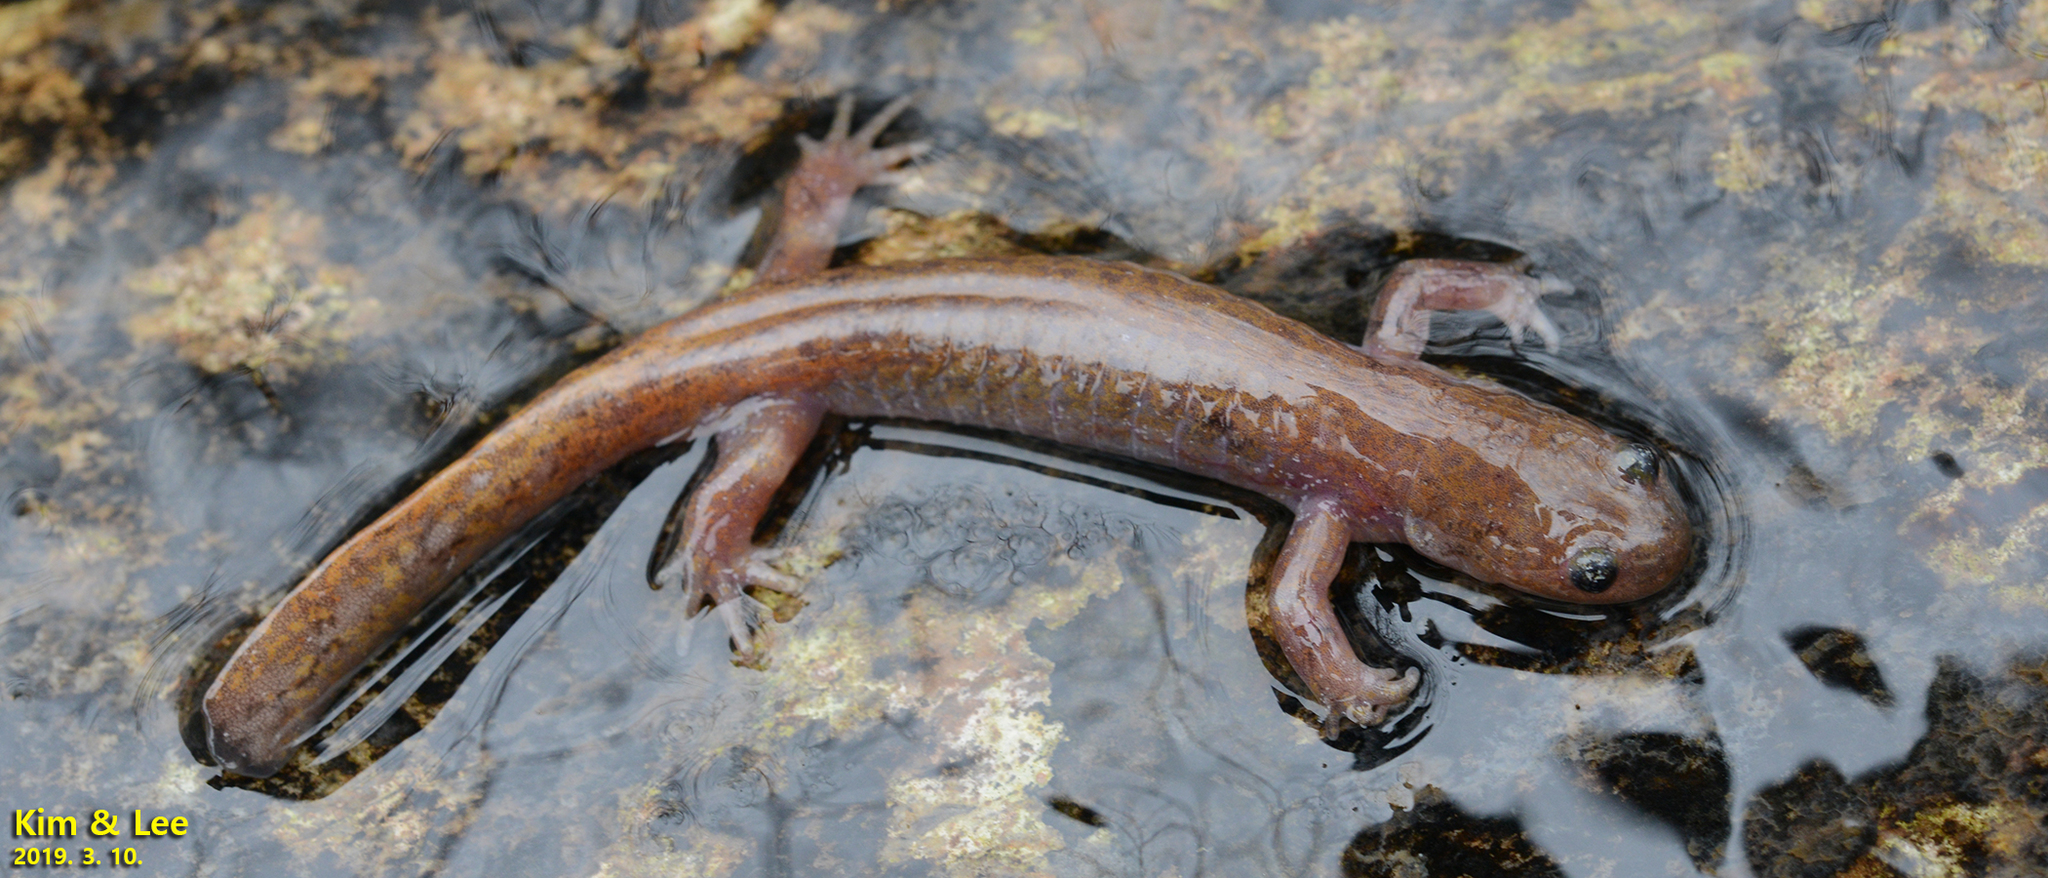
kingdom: Animalia
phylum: Chordata
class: Amphibia
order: Caudata
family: Hynobiidae
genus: Hynobius
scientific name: Hynobius geojeensis
